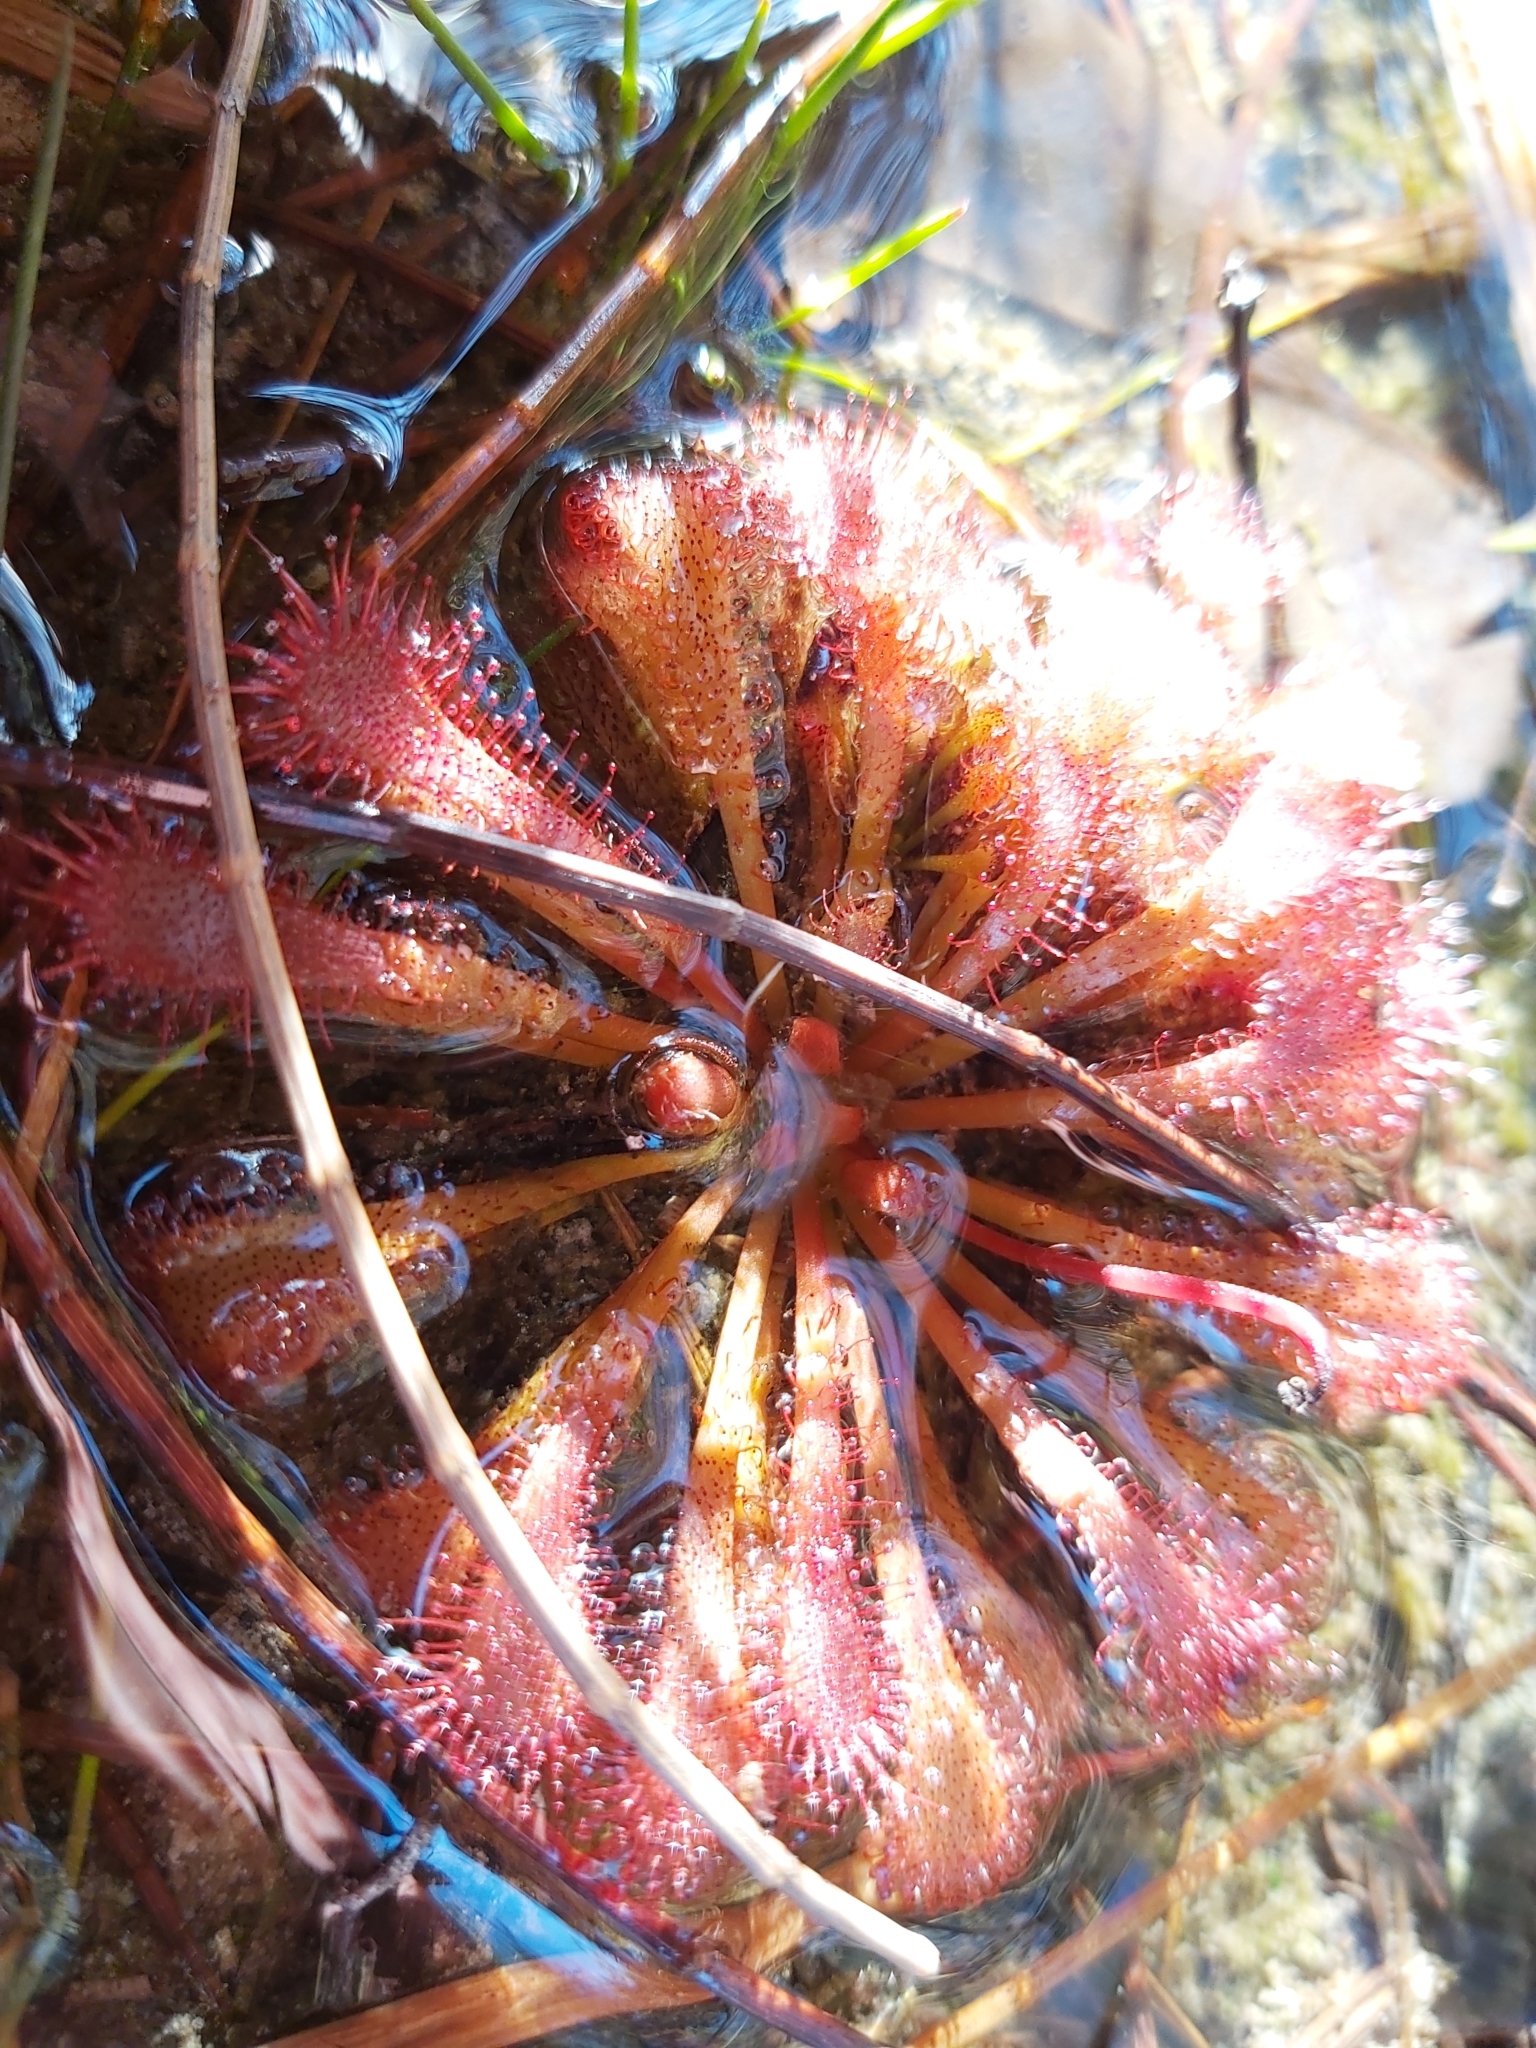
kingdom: Plantae
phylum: Tracheophyta
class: Magnoliopsida
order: Caryophyllales
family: Droseraceae
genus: Drosera
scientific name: Drosera spatulata
